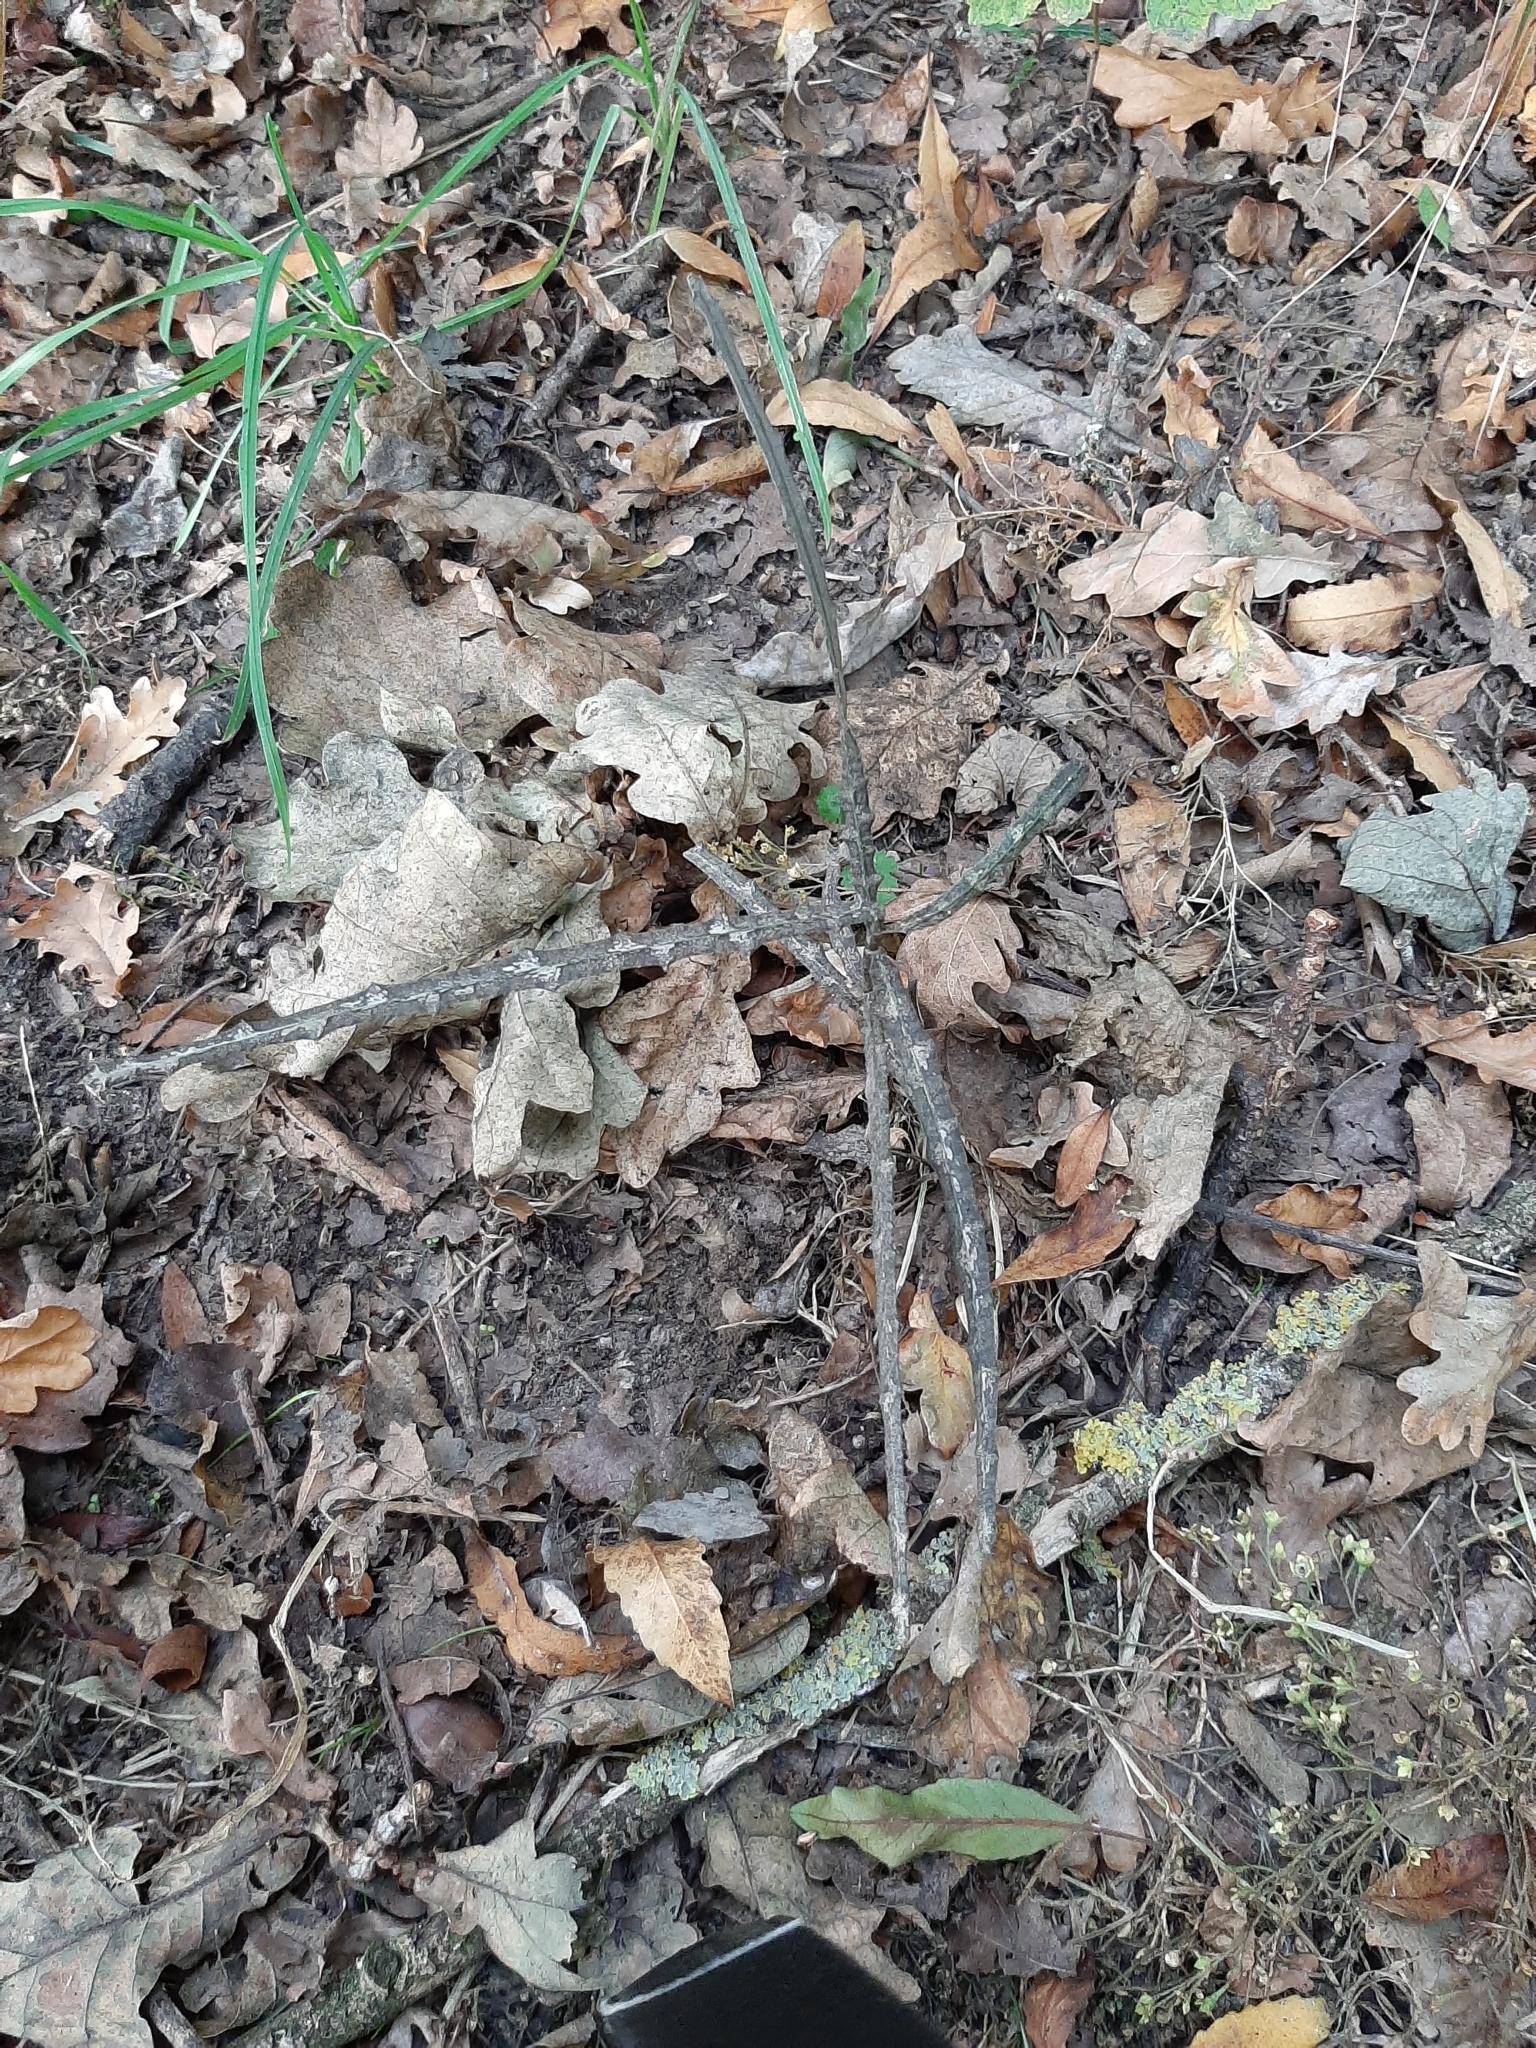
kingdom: Plantae
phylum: Tracheophyta
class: Magnoliopsida
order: Apiales
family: Araliaceae
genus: Pseudopanax
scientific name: Pseudopanax ferox
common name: Fierce lancewood
